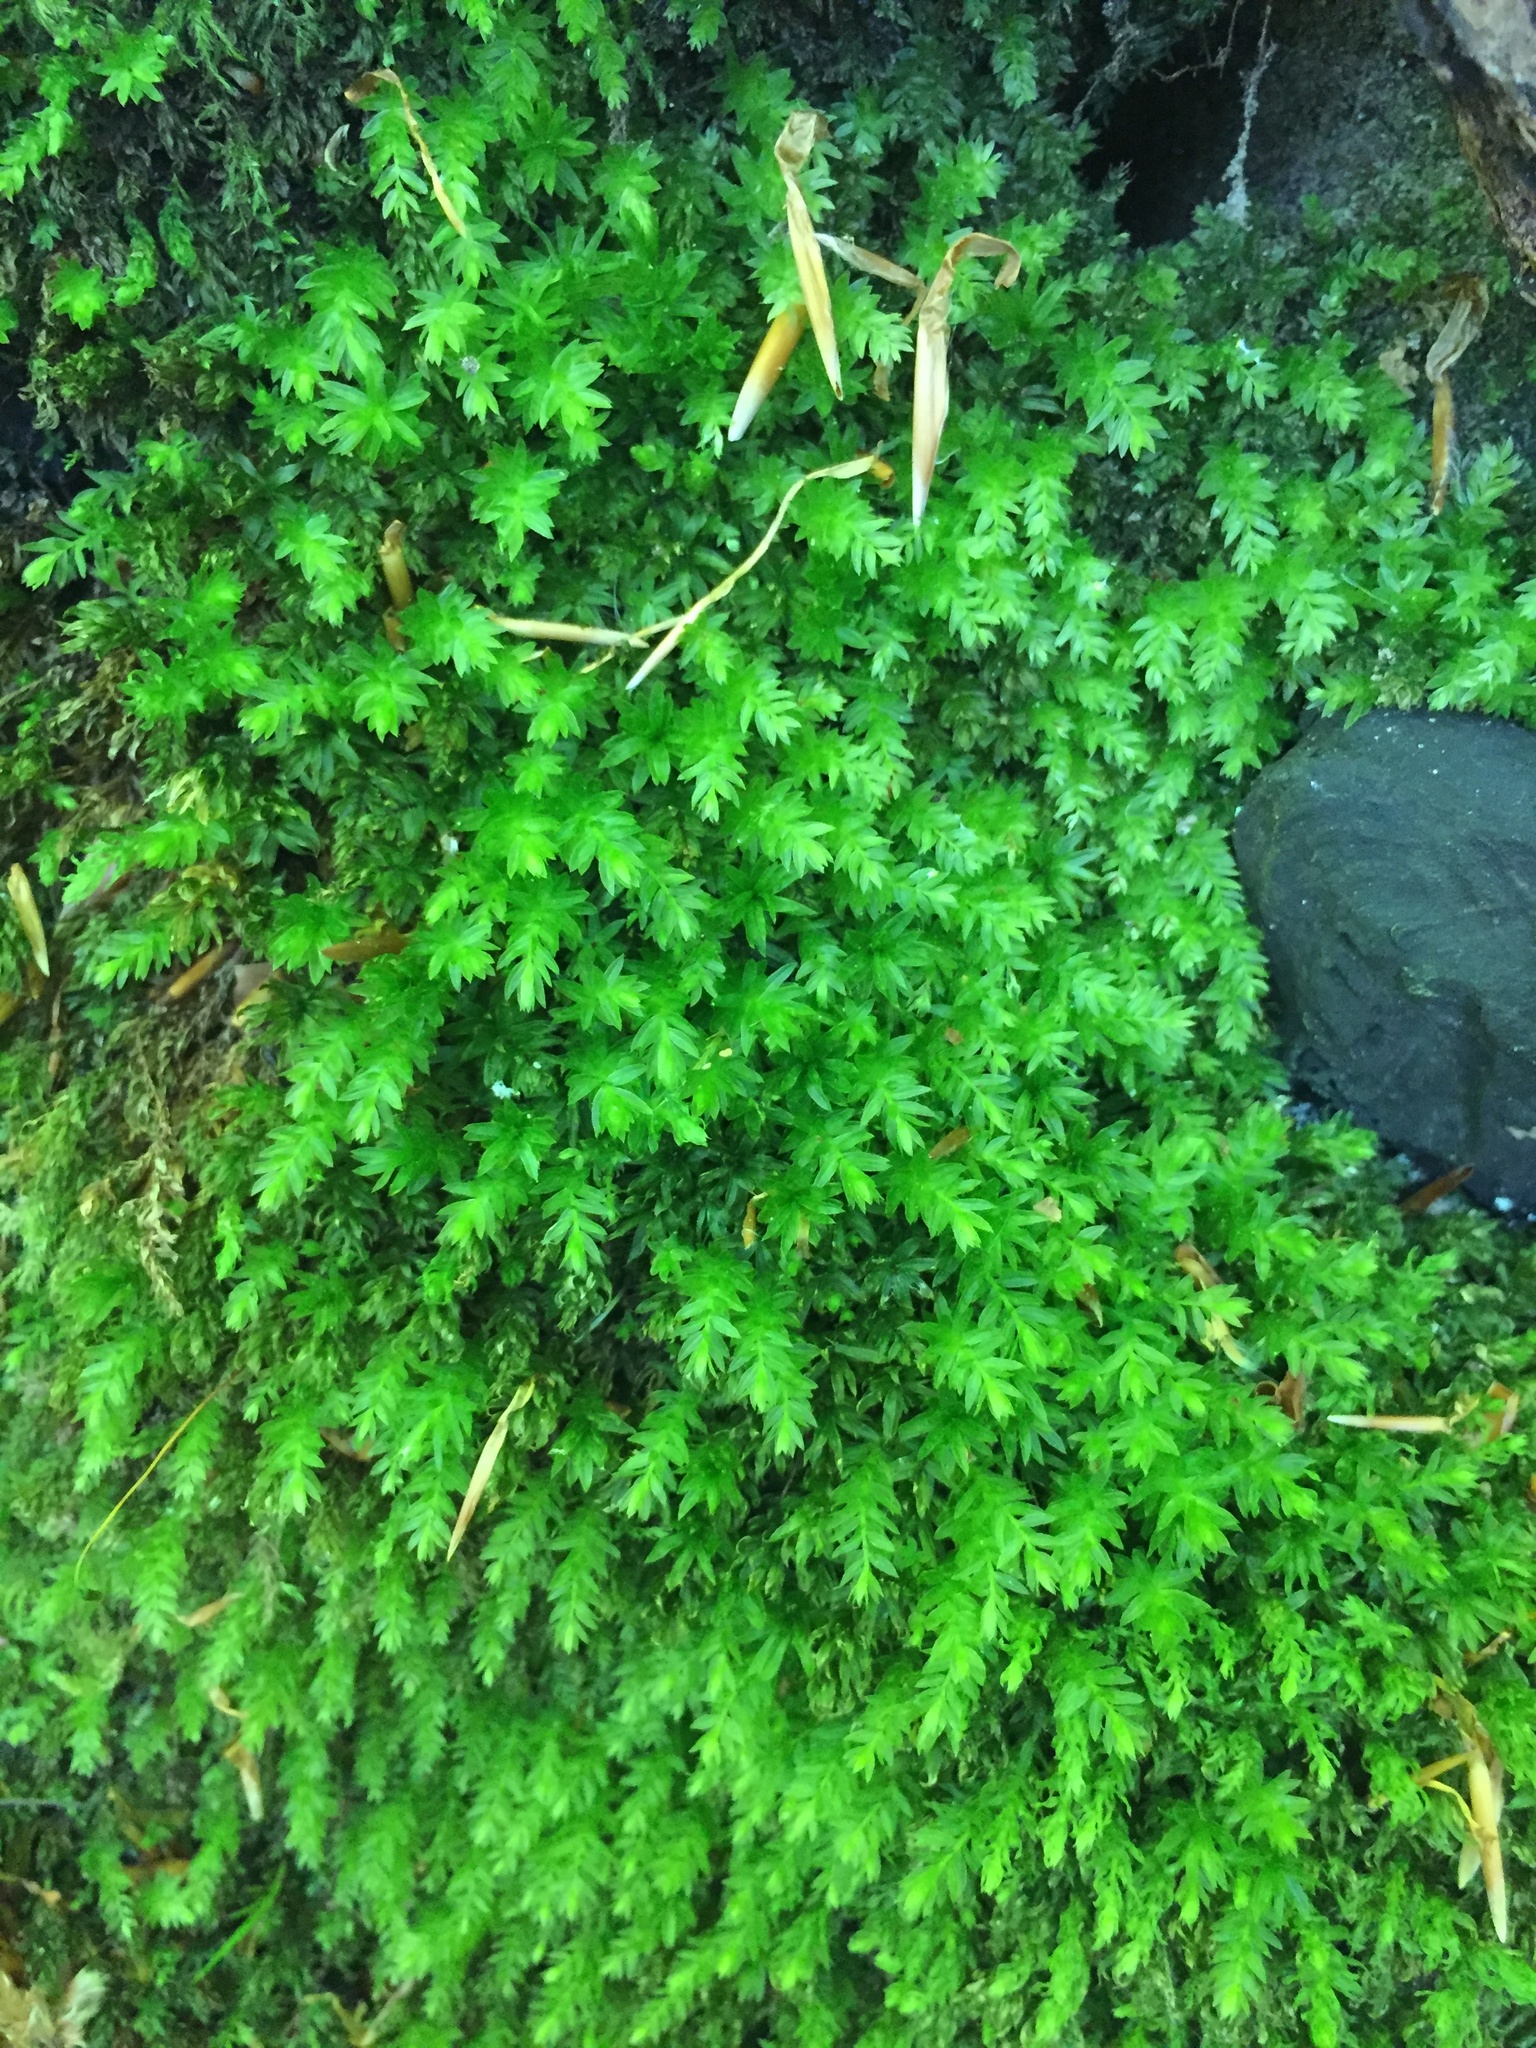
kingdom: Plantae
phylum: Bryophyta
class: Bryopsida
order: Bryales
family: Mniaceae
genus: Mnium
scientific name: Mnium hornum
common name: Swan's-neck leafy moss
